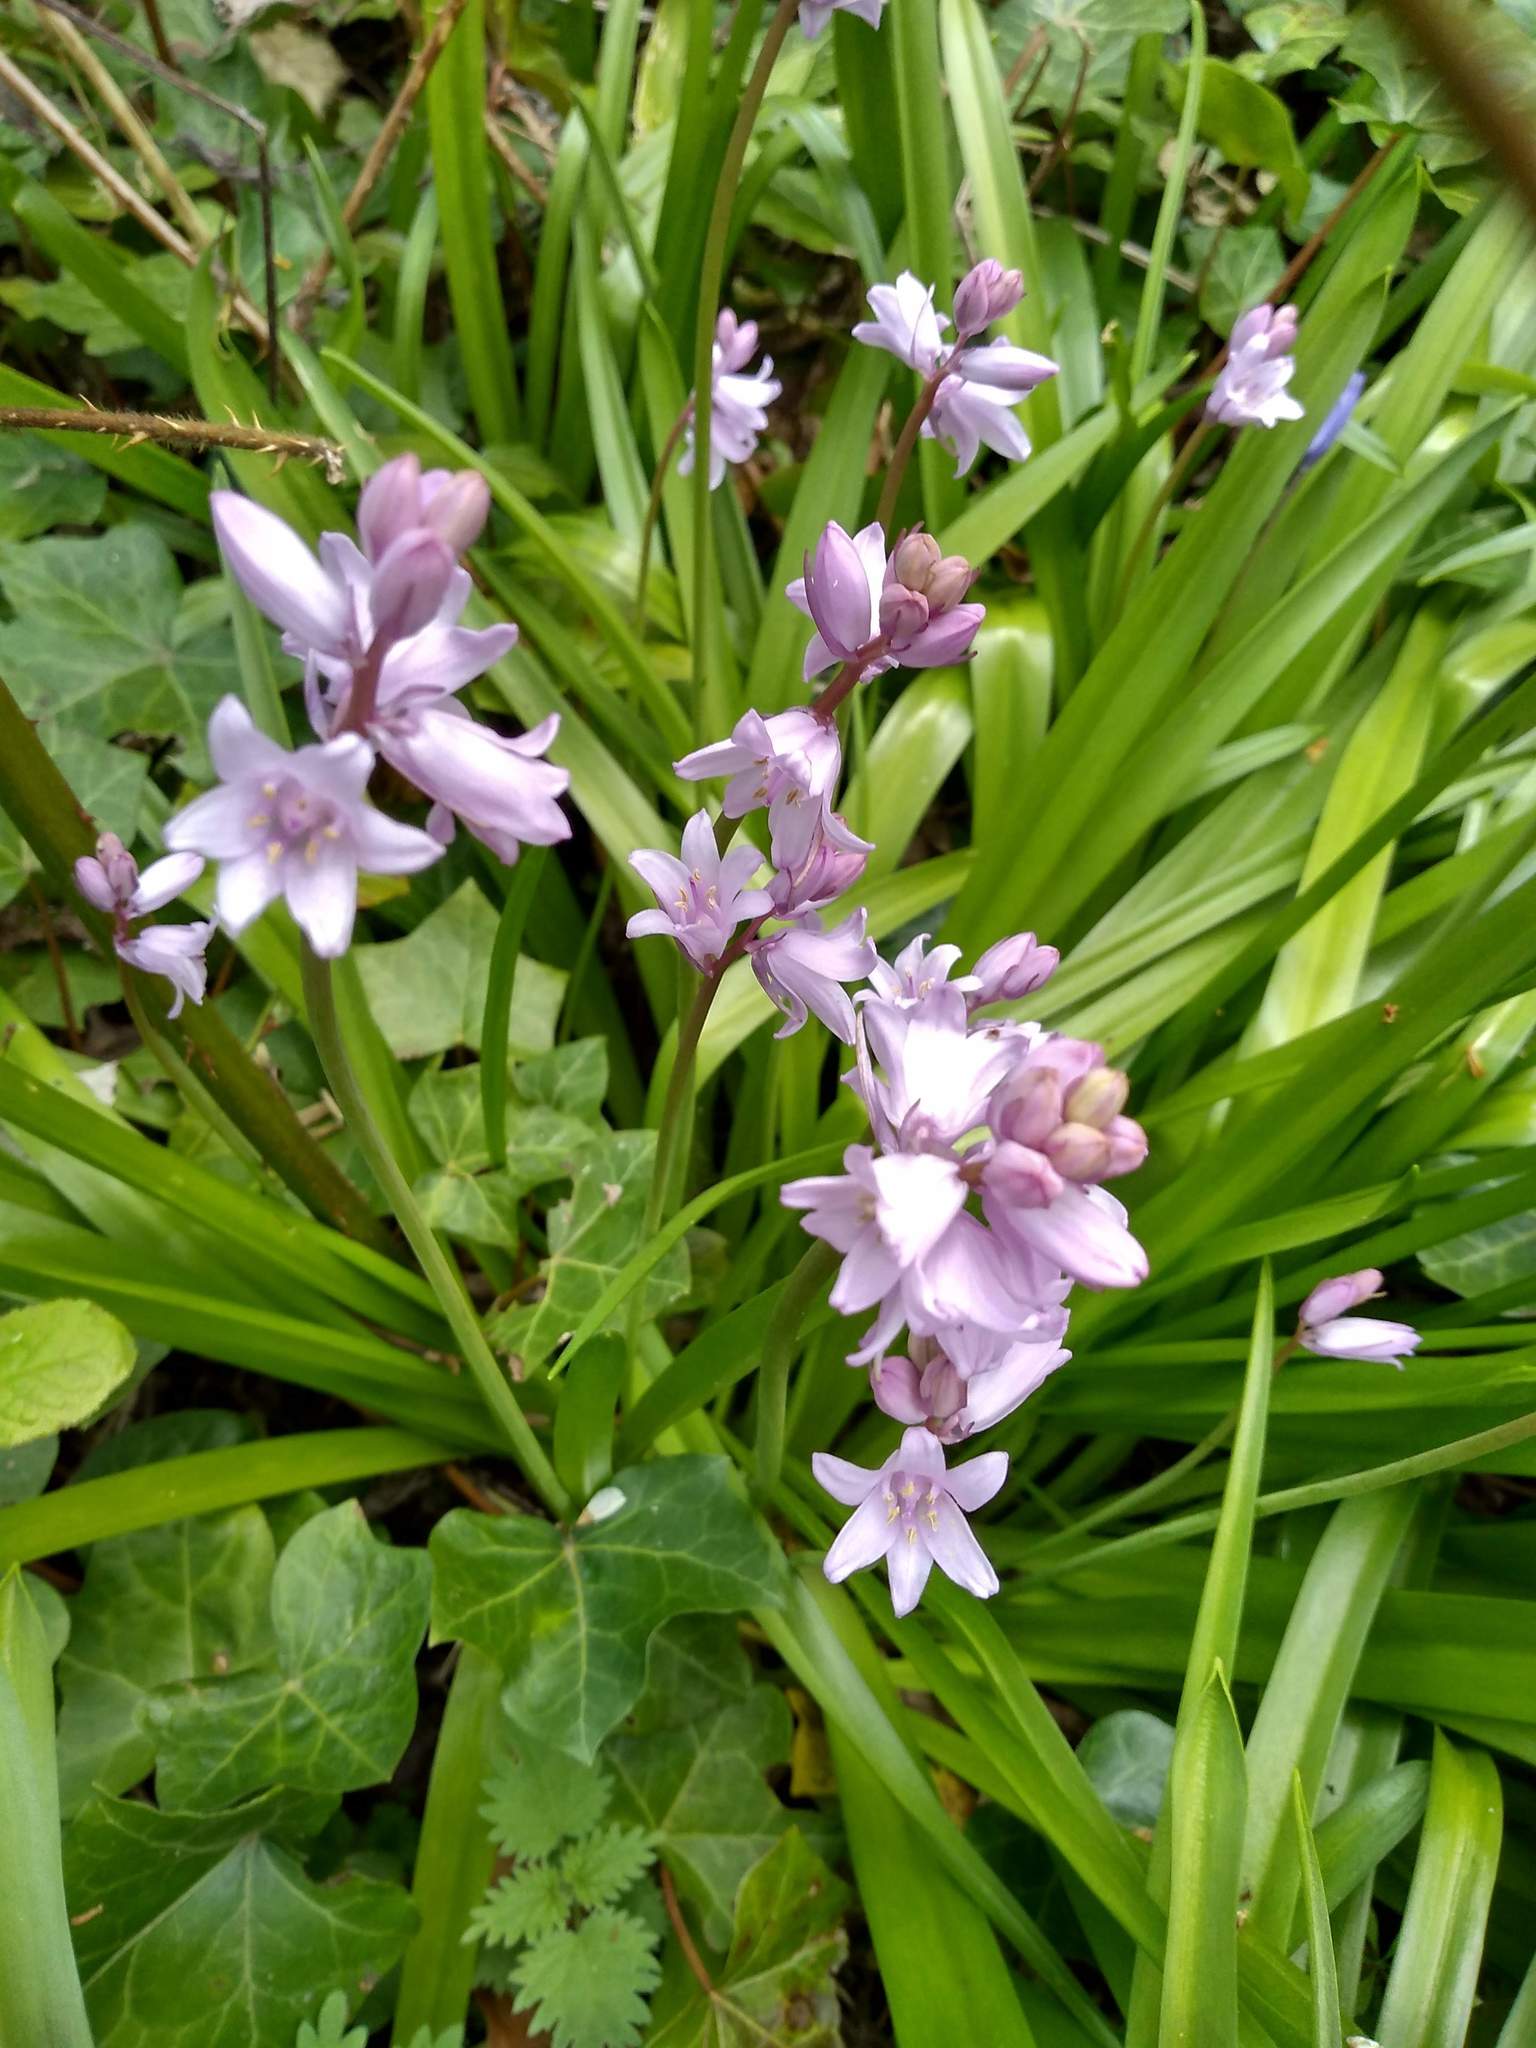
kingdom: Plantae
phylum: Tracheophyta
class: Liliopsida
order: Asparagales
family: Asparagaceae
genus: Hyacinthoides
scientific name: Hyacinthoides massartiana
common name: Hyacinthoides
